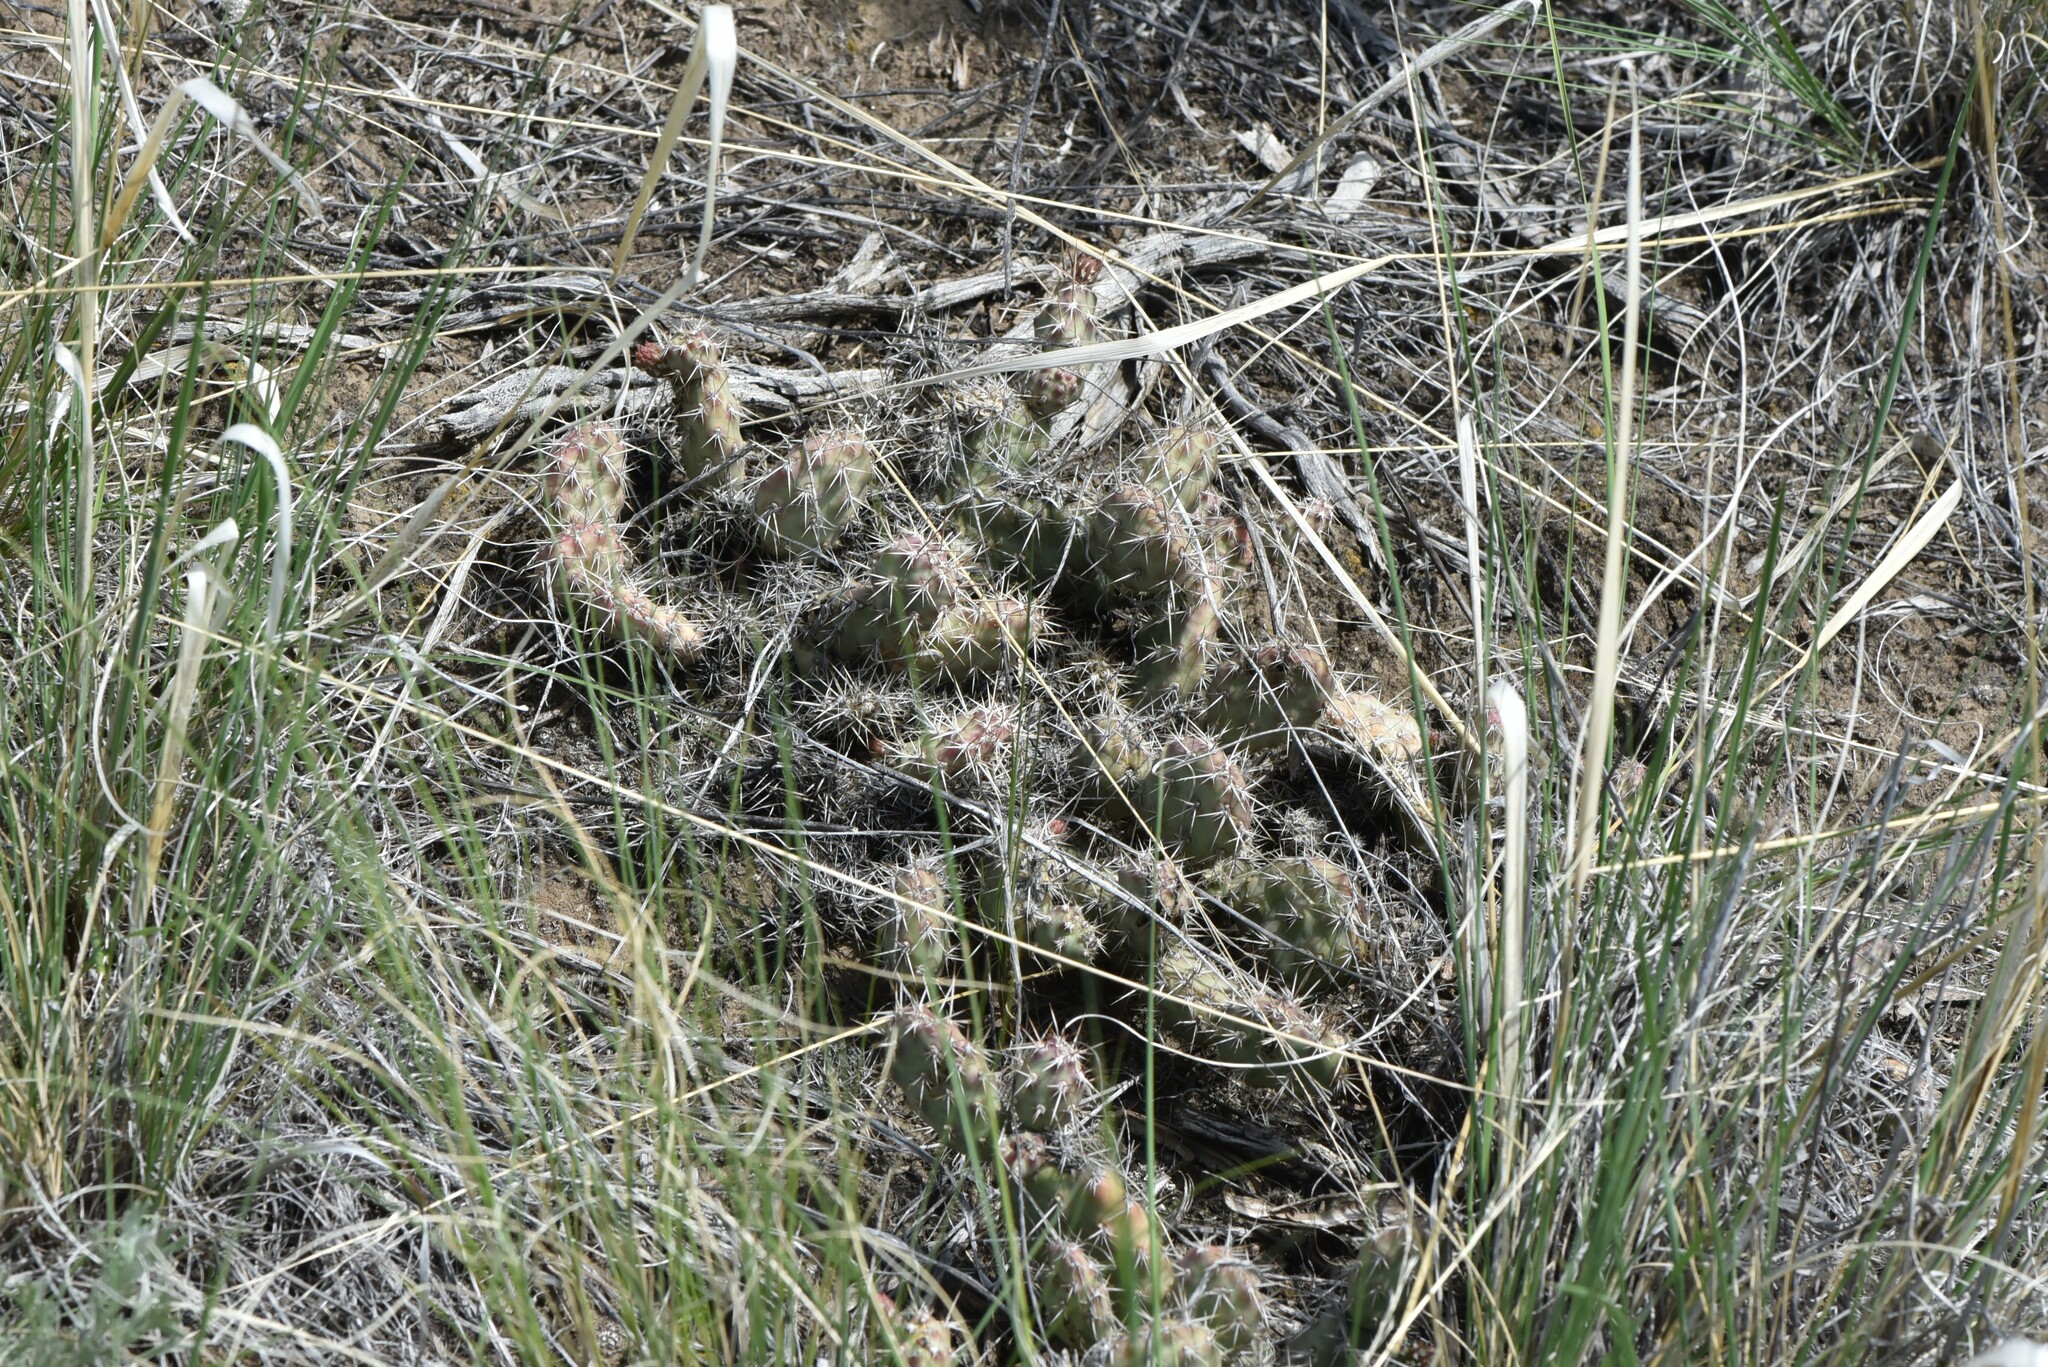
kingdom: Plantae
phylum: Tracheophyta
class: Magnoliopsida
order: Caryophyllales
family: Cactaceae
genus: Opuntia
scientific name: Opuntia fragilis
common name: Brittle cactus
